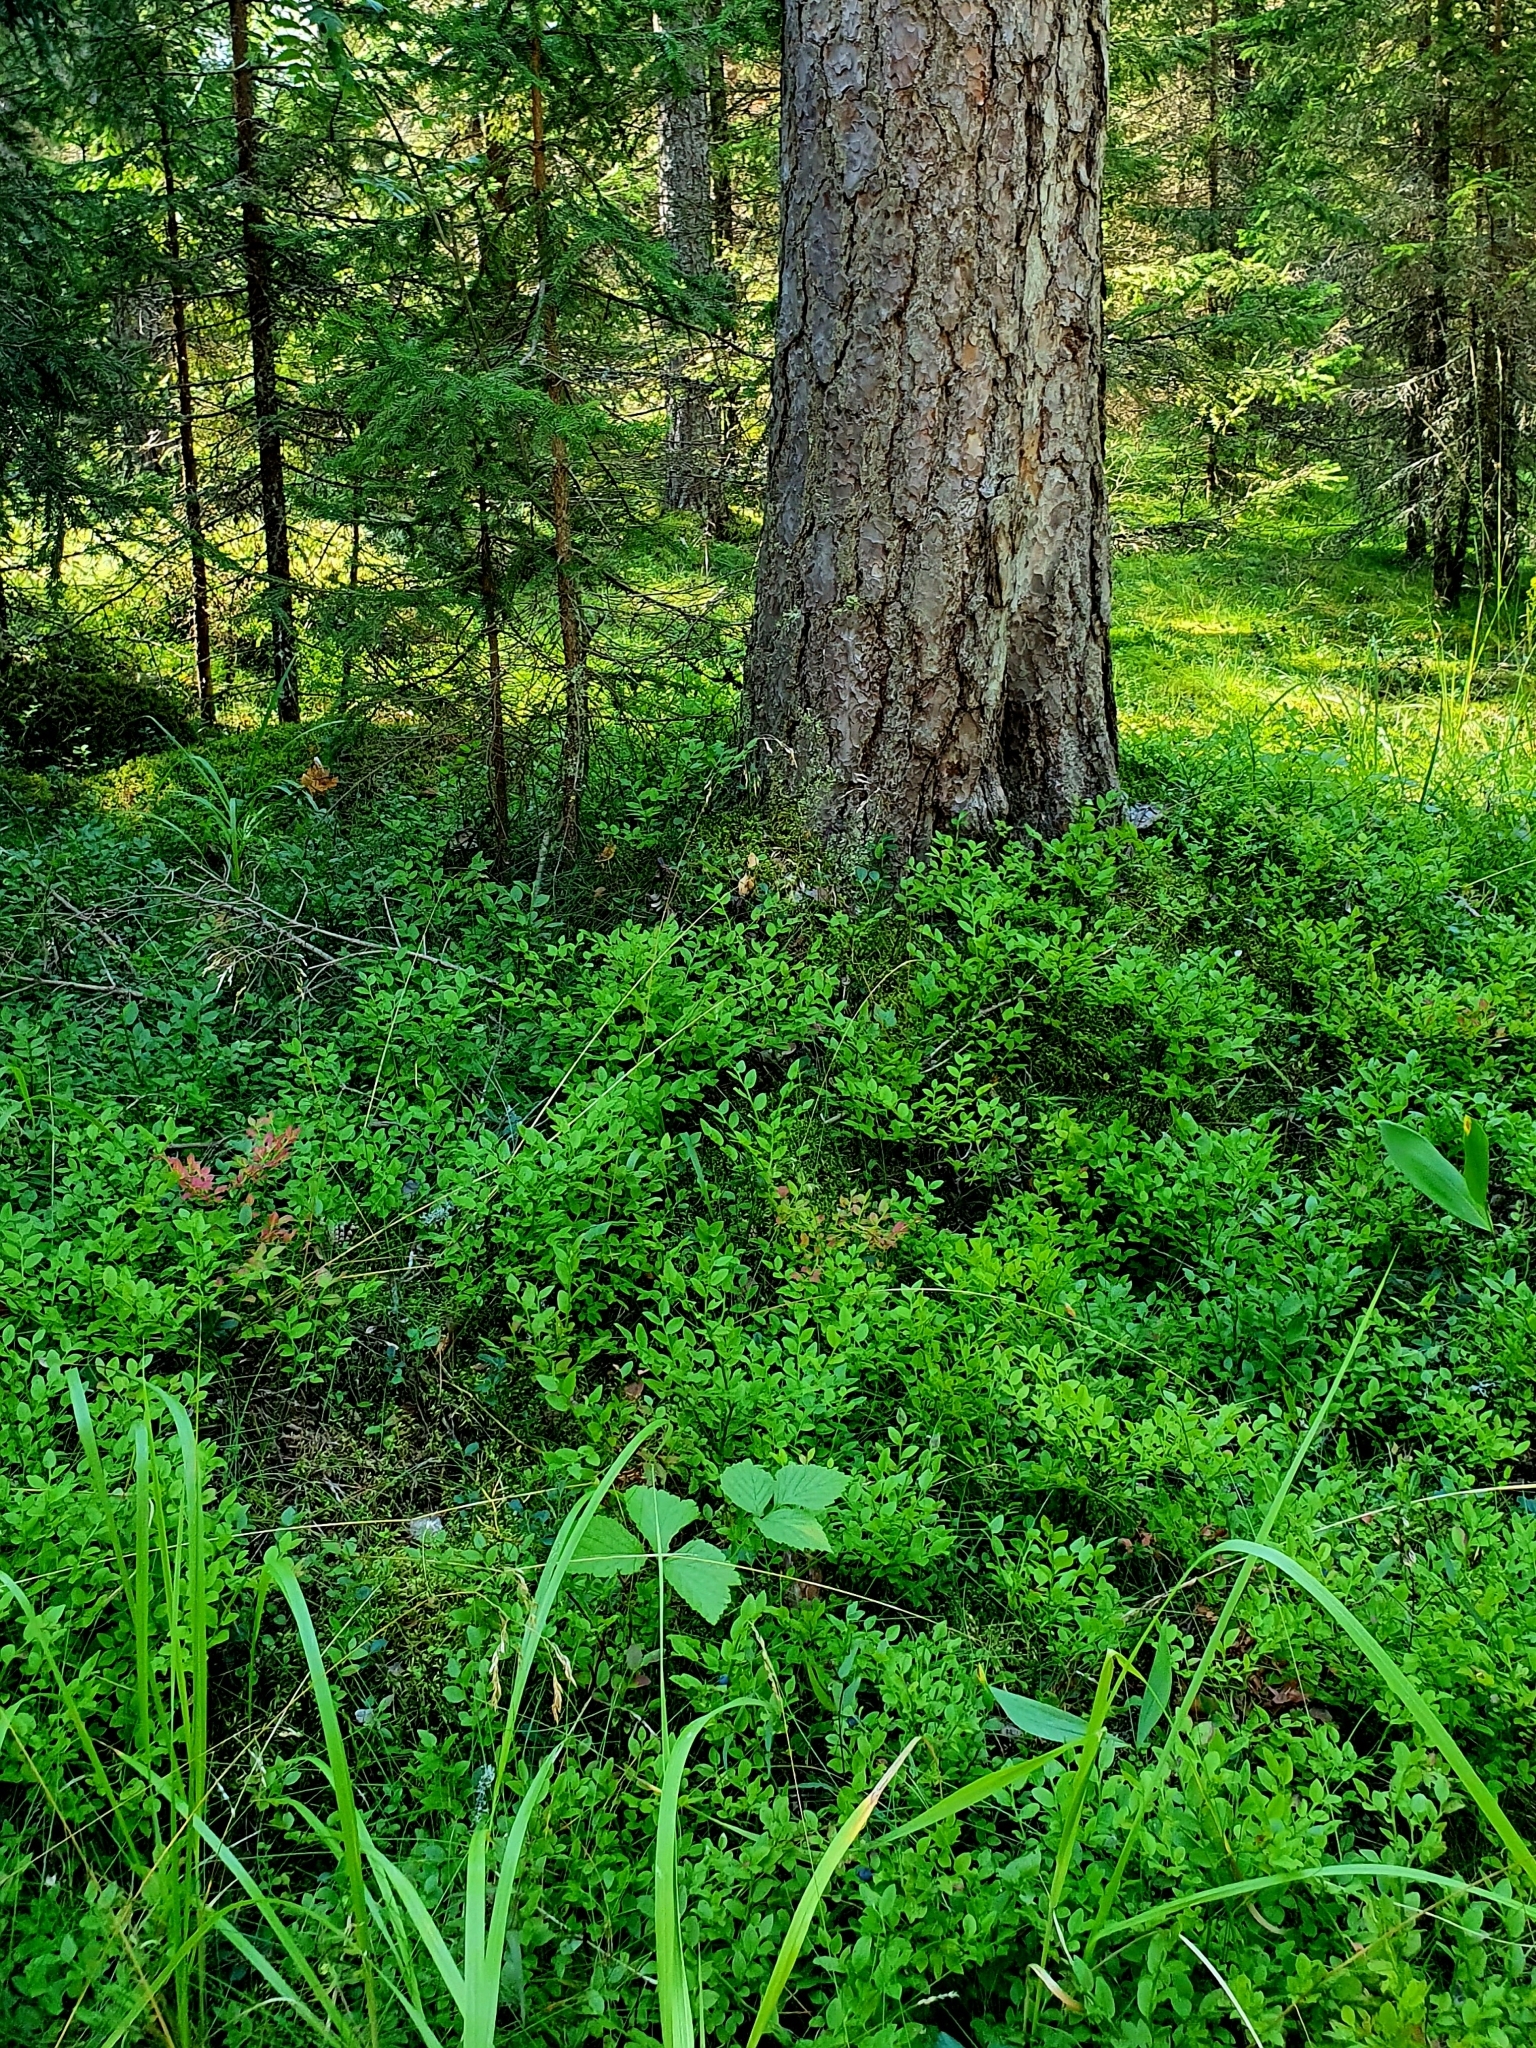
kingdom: Plantae
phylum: Tracheophyta
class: Magnoliopsida
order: Ericales
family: Ericaceae
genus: Vaccinium
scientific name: Vaccinium myrtillus
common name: Bilberry
